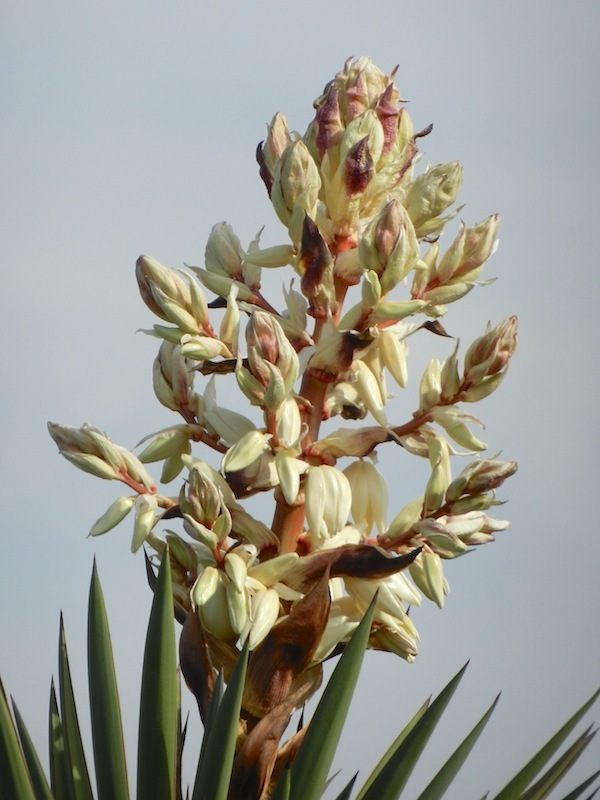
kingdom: Plantae
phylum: Tracheophyta
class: Liliopsida
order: Asparagales
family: Asparagaceae
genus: Yucca
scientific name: Yucca treculiana
